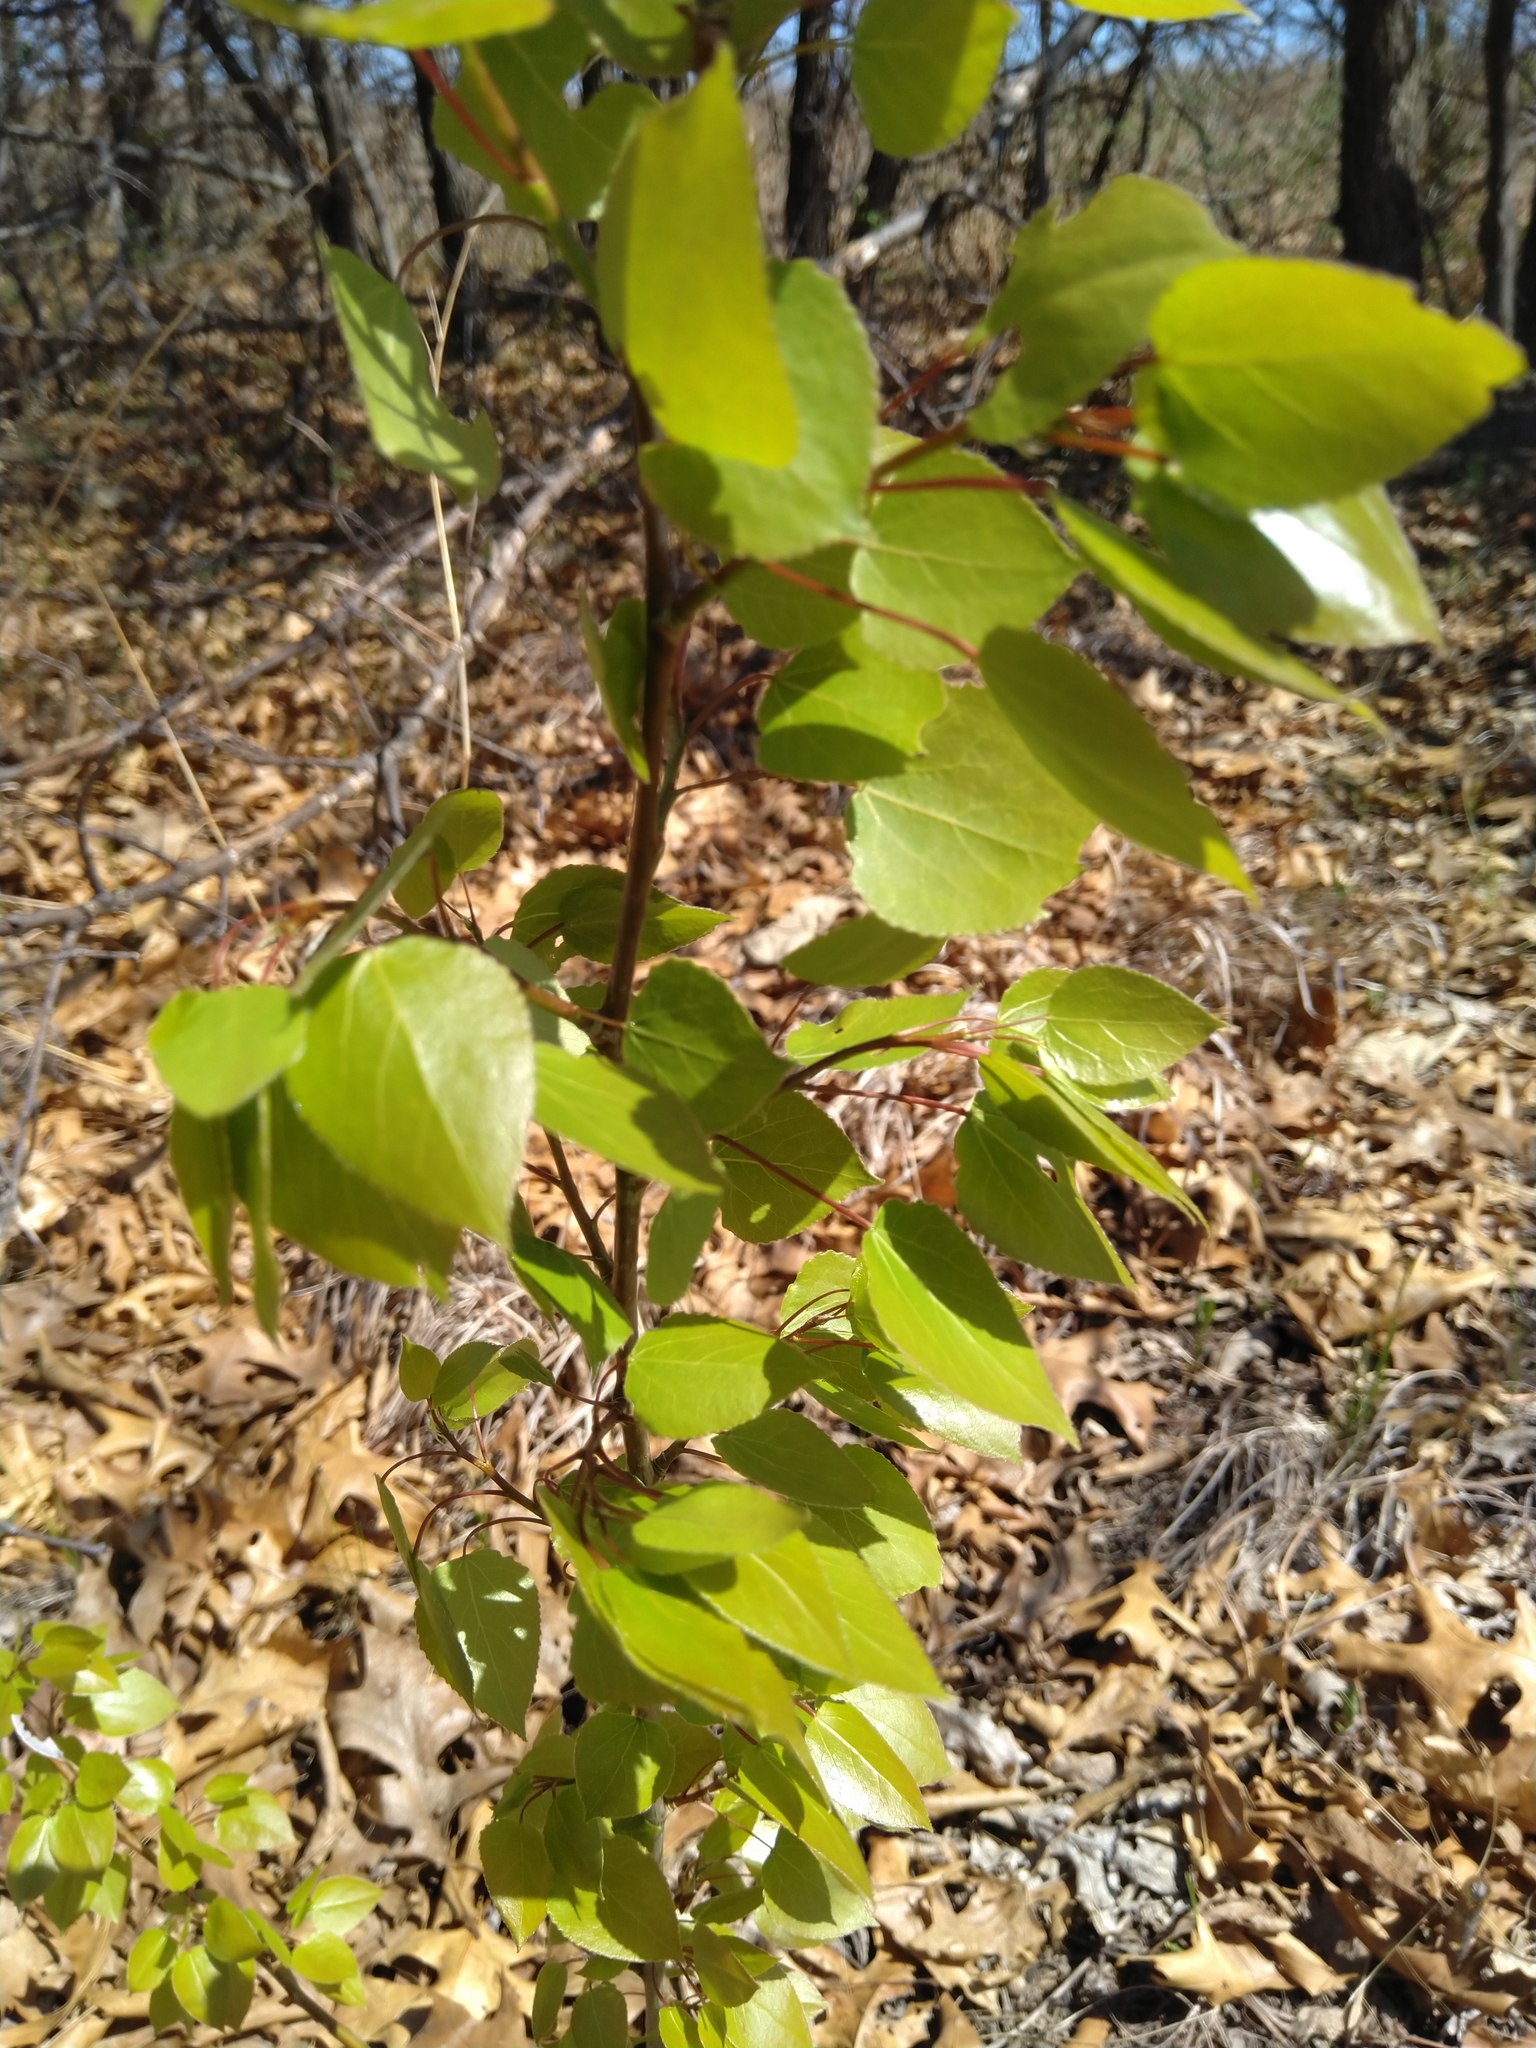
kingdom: Plantae
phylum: Tracheophyta
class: Magnoliopsida
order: Malpighiales
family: Salicaceae
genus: Populus
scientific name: Populus tremuloides
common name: Quaking aspen
